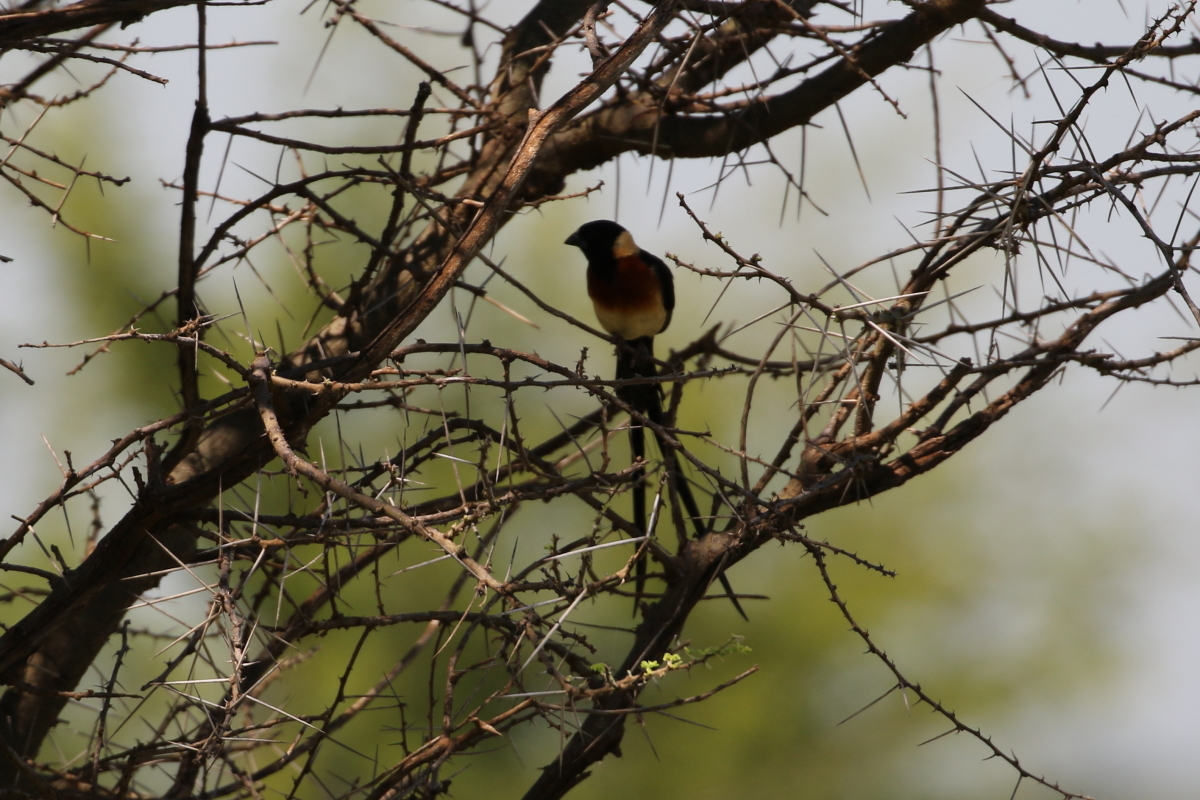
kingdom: Animalia
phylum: Chordata
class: Aves
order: Passeriformes
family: Viduidae
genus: Vidua
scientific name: Vidua paradisaea
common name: Long-tailed paradise whydah
